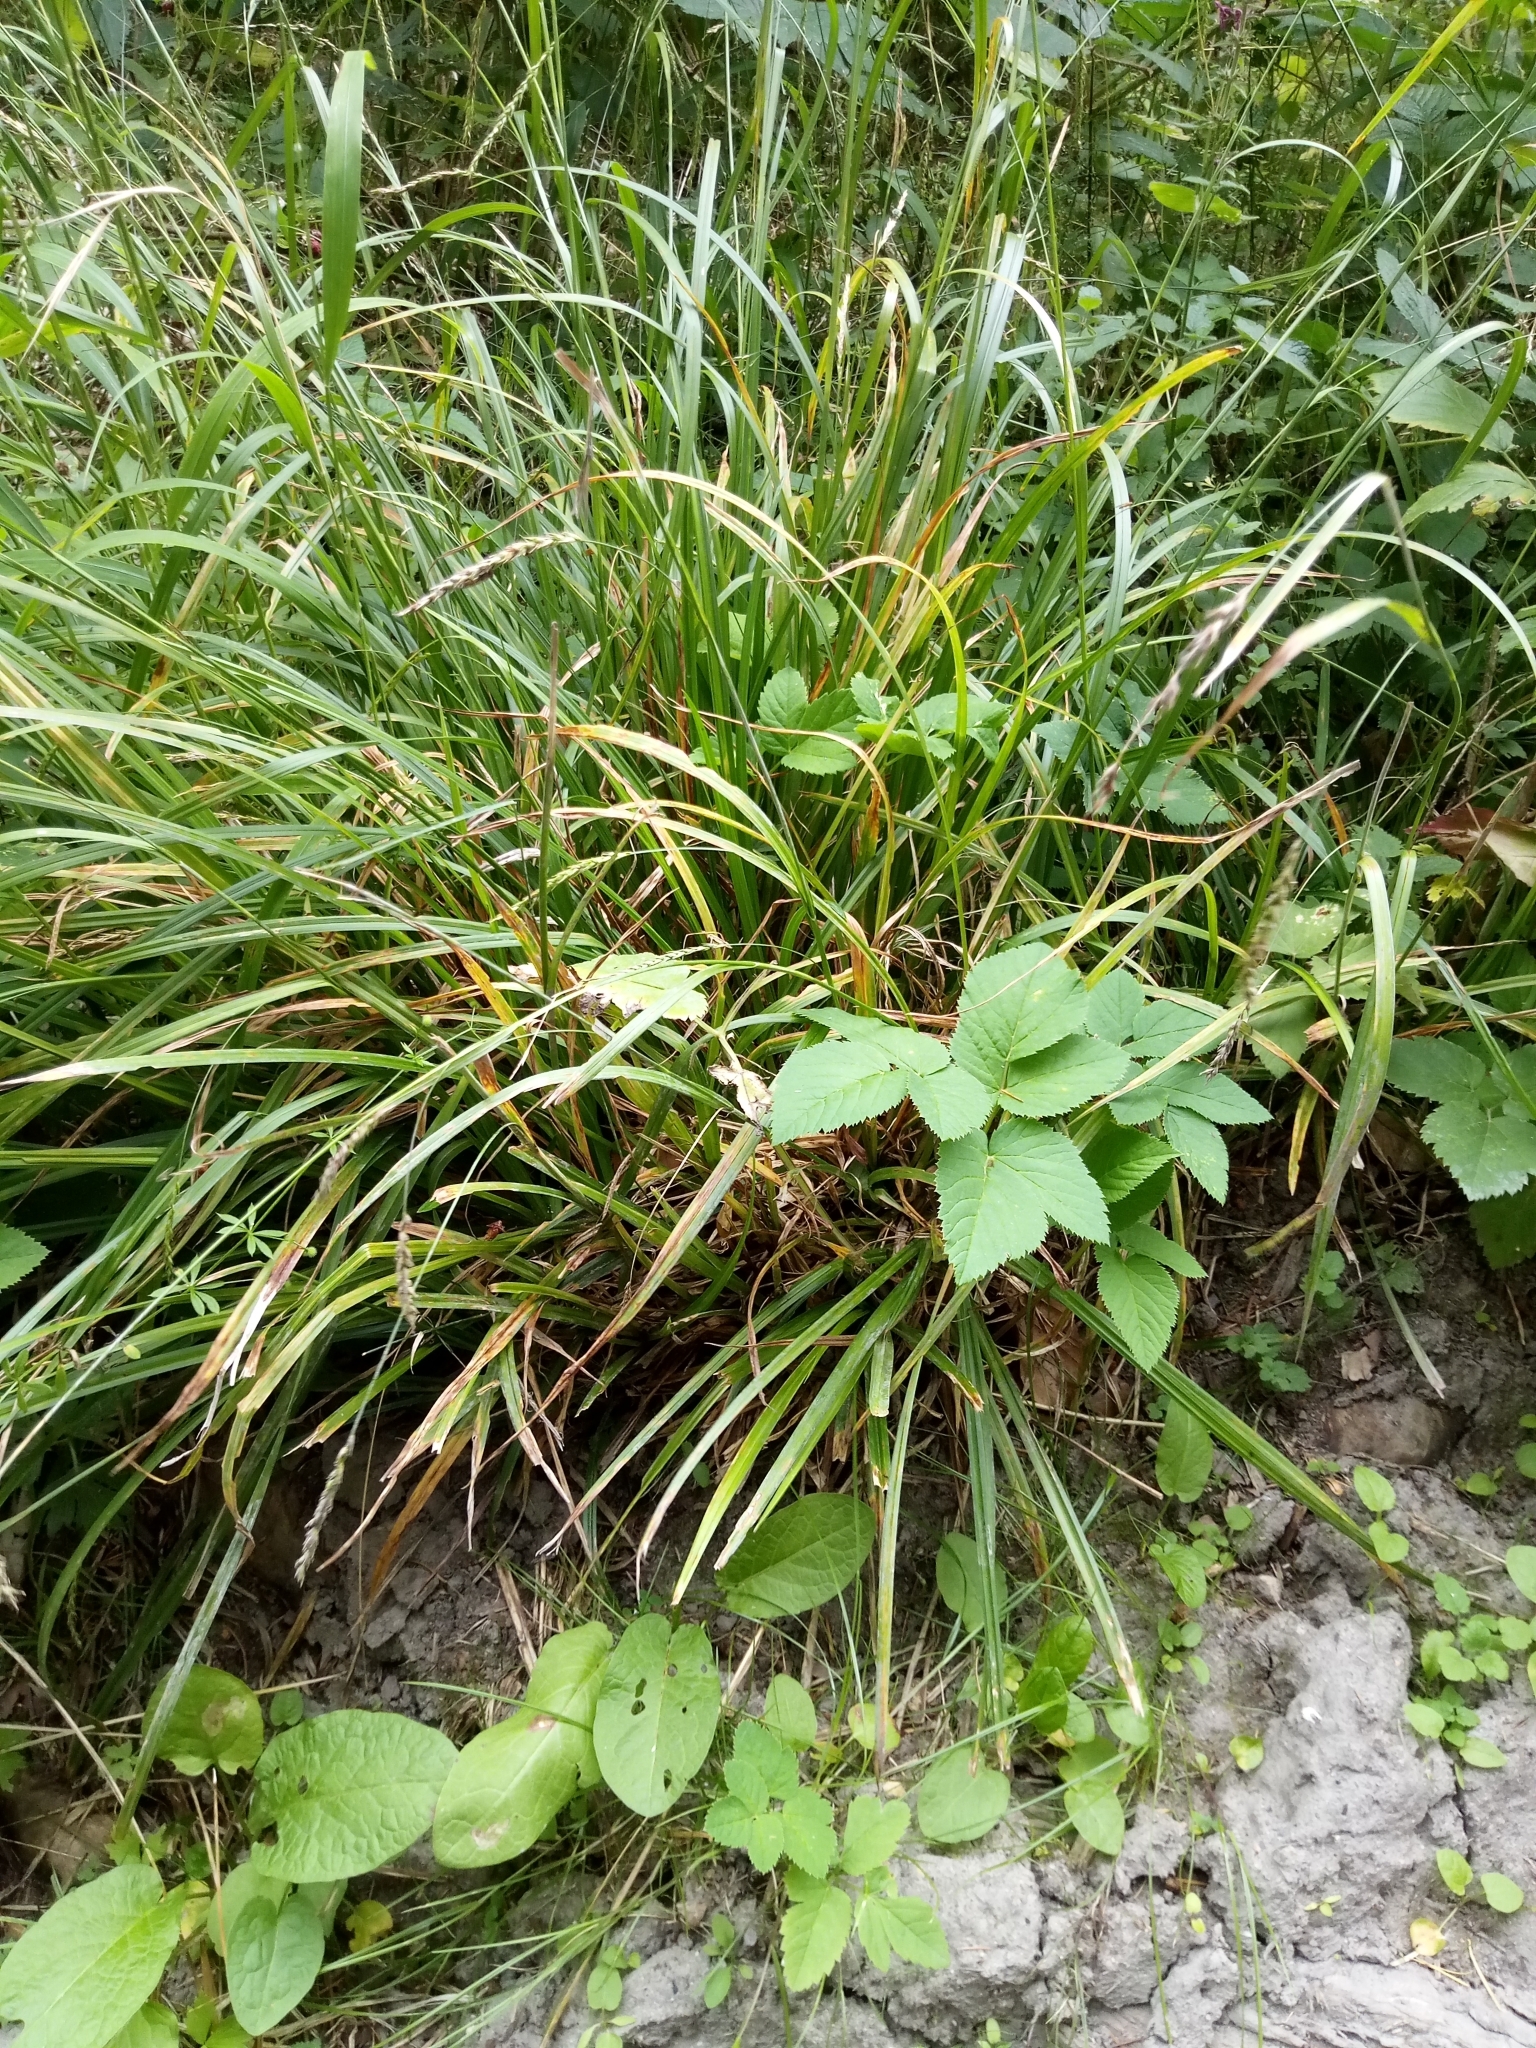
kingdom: Plantae
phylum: Tracheophyta
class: Liliopsida
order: Poales
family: Cyperaceae
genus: Carex
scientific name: Carex sylvatica
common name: Wood-sedge
